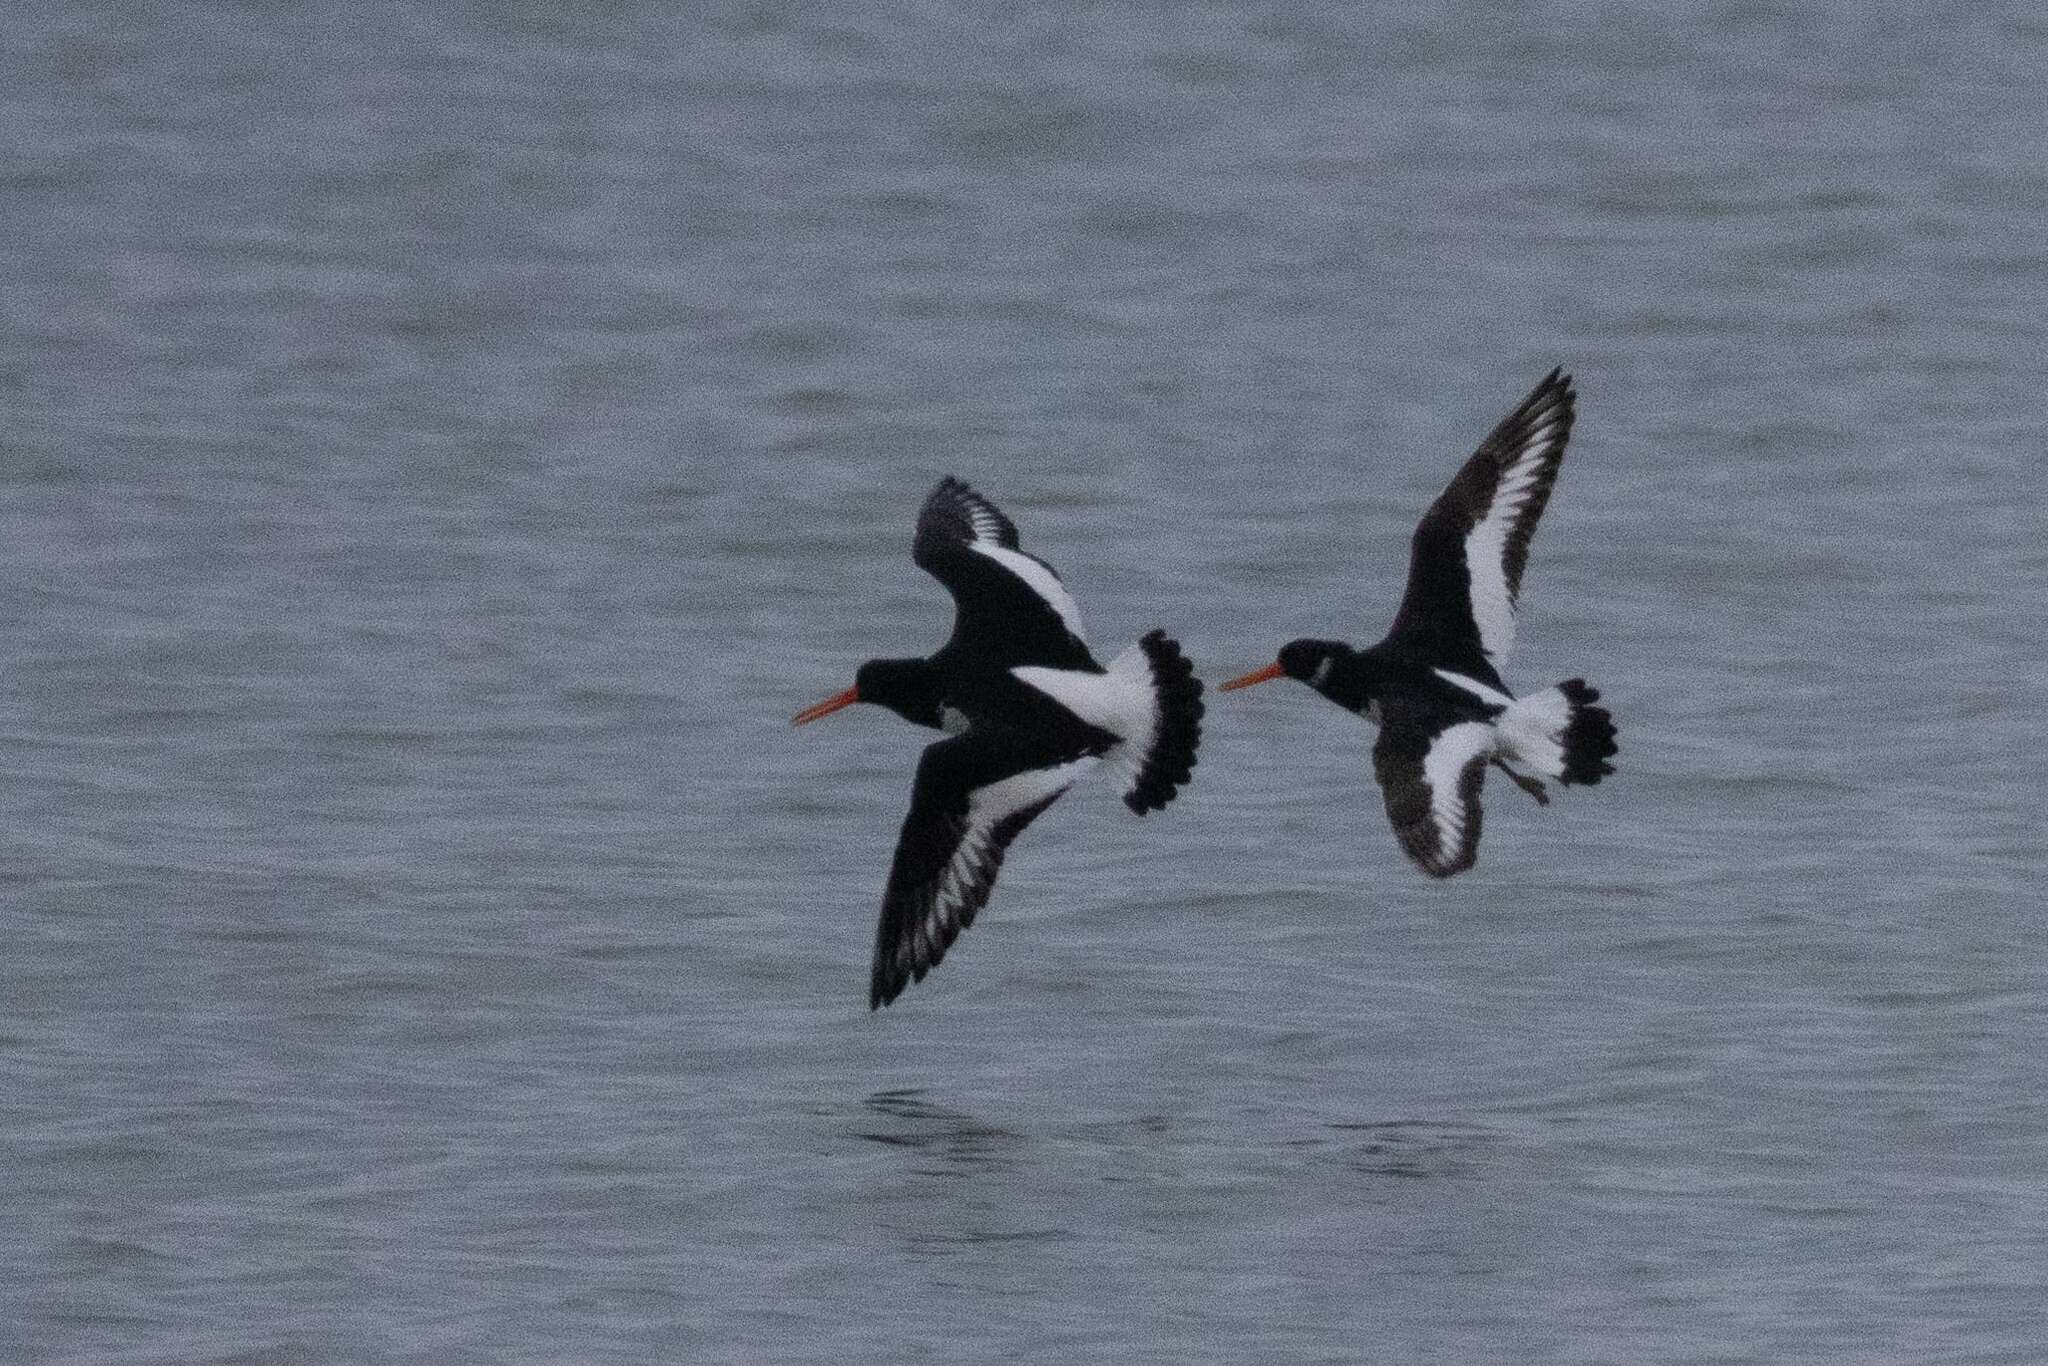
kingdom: Animalia
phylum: Chordata
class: Aves
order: Charadriiformes
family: Haematopodidae
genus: Haematopus
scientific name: Haematopus ostralegus
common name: Eurasian oystercatcher
